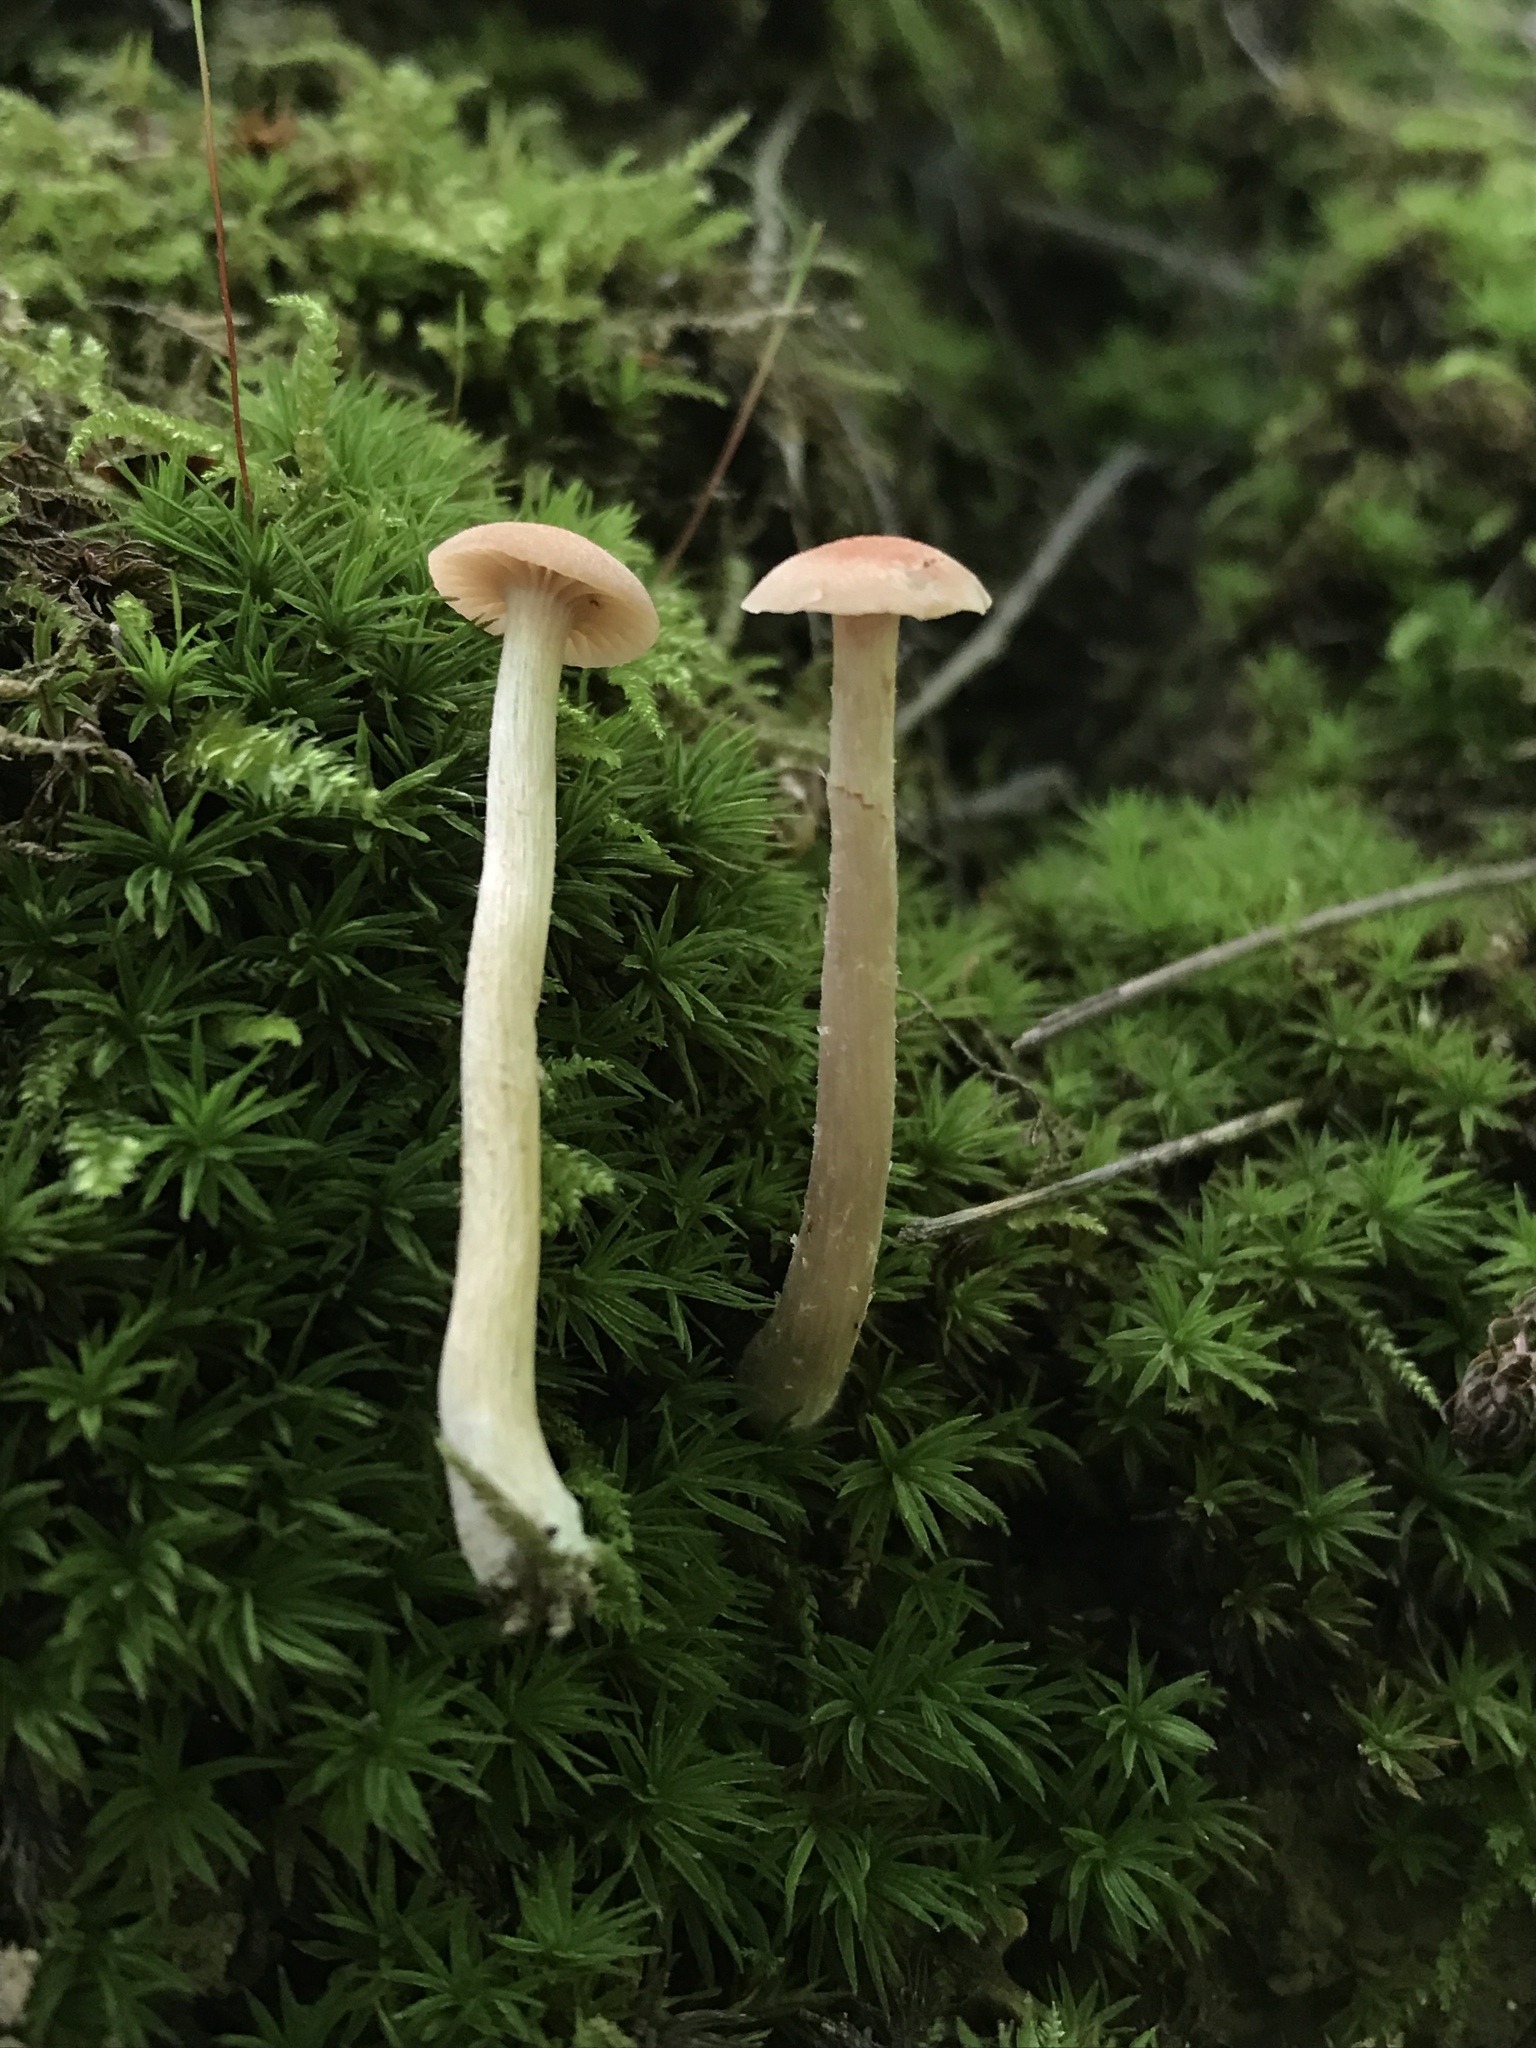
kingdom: Fungi
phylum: Basidiomycota
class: Agaricomycetes
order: Agaricales
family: Hydnangiaceae
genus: Laccaria
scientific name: Laccaria laccata
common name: Deceiver
